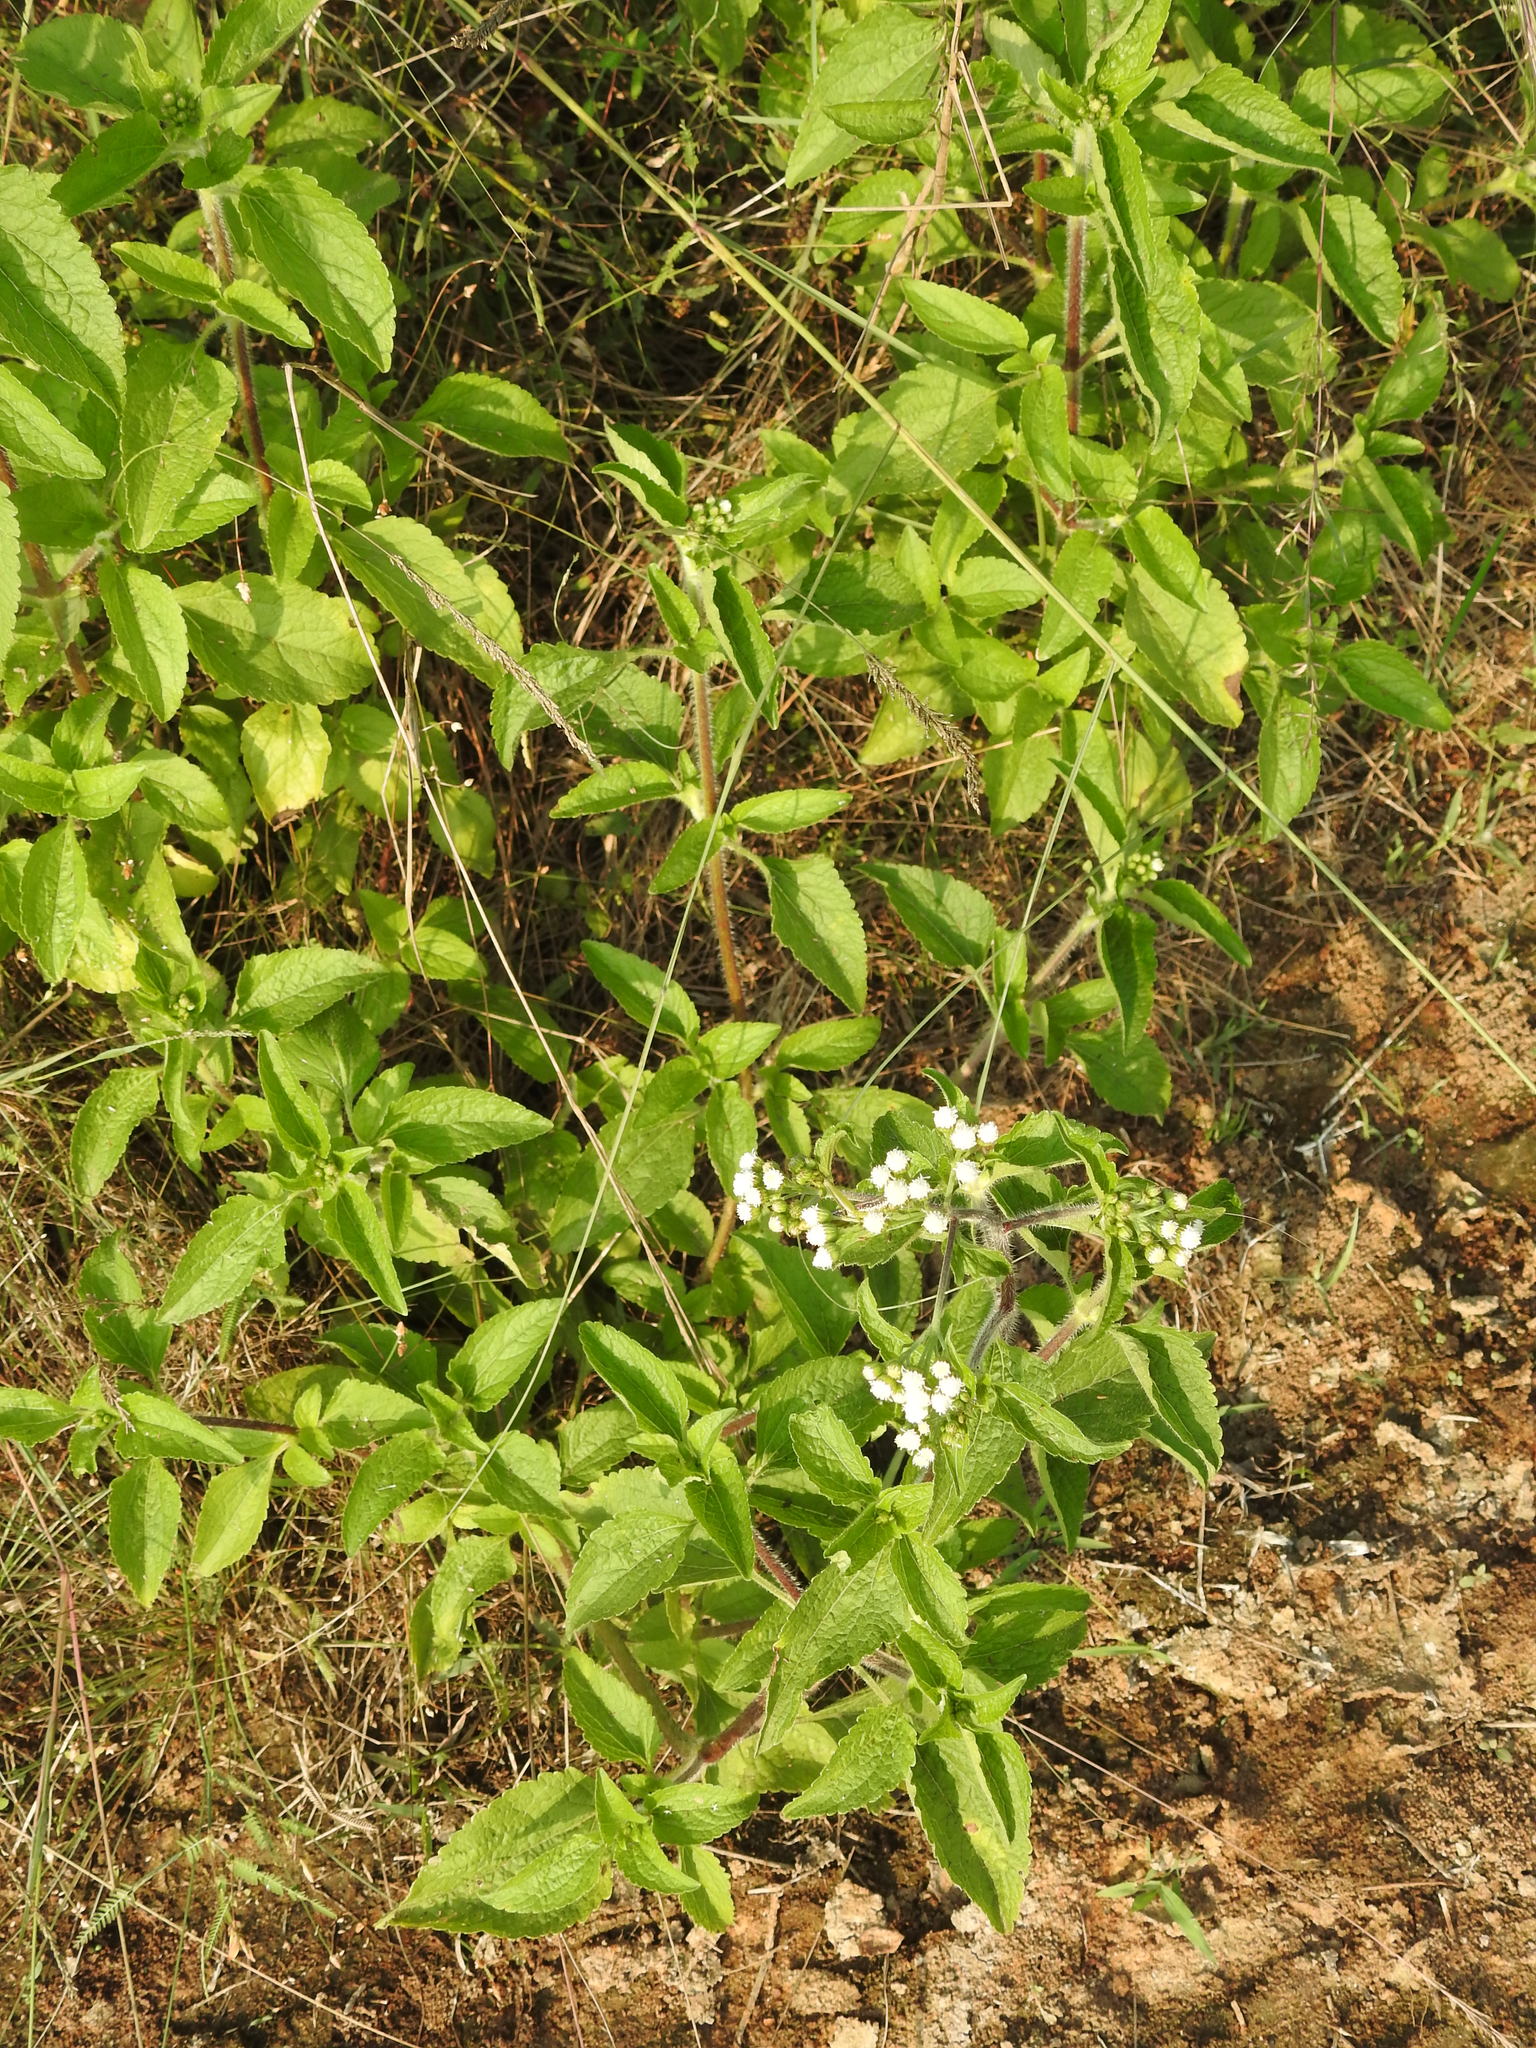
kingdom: Plantae
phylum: Tracheophyta
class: Magnoliopsida
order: Asterales
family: Asteraceae
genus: Ageratum
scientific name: Ageratum conyzoides
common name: Tropical whiteweed
